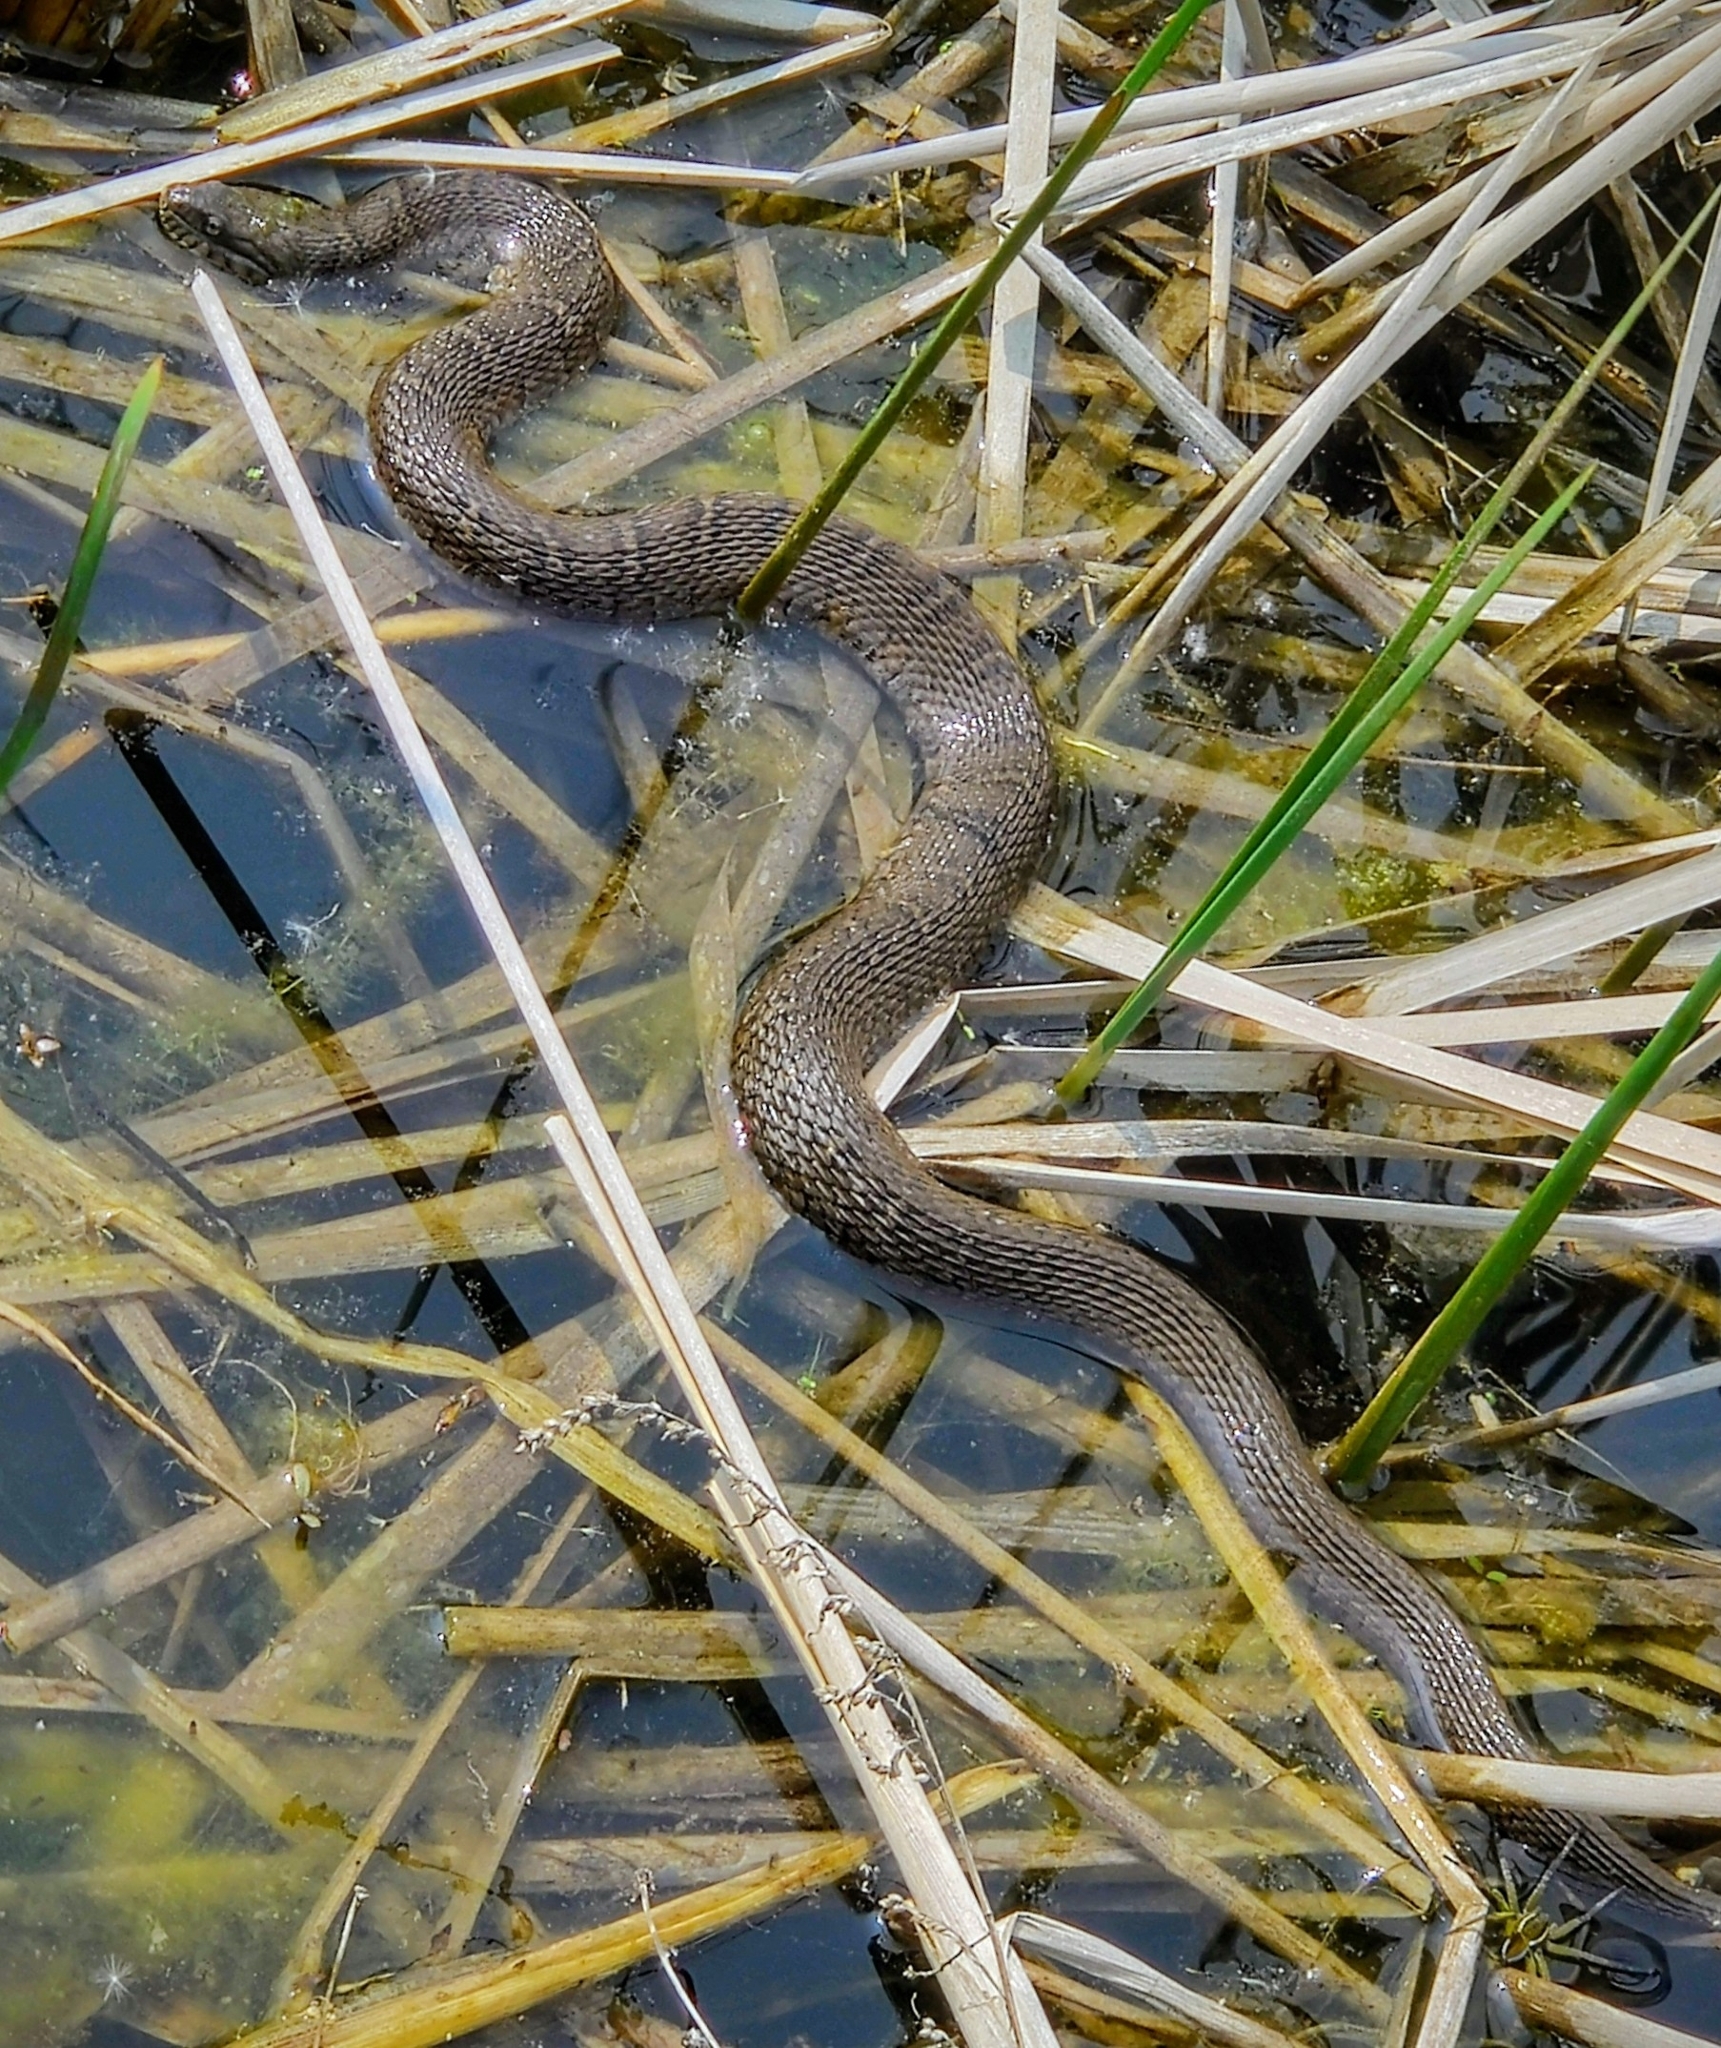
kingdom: Animalia
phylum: Chordata
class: Squamata
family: Colubridae
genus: Nerodia
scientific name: Nerodia sipedon
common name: Northern water snake
